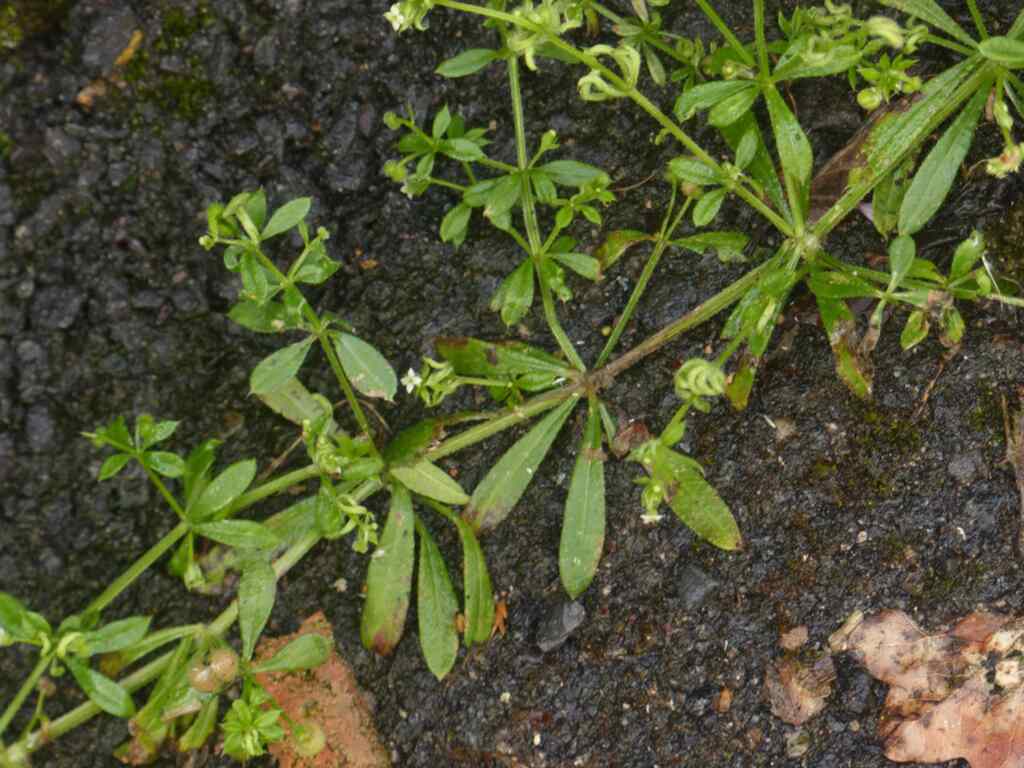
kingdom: Plantae
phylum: Tracheophyta
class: Magnoliopsida
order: Gentianales
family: Rubiaceae
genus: Galium
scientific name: Galium aparine
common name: Cleavers
